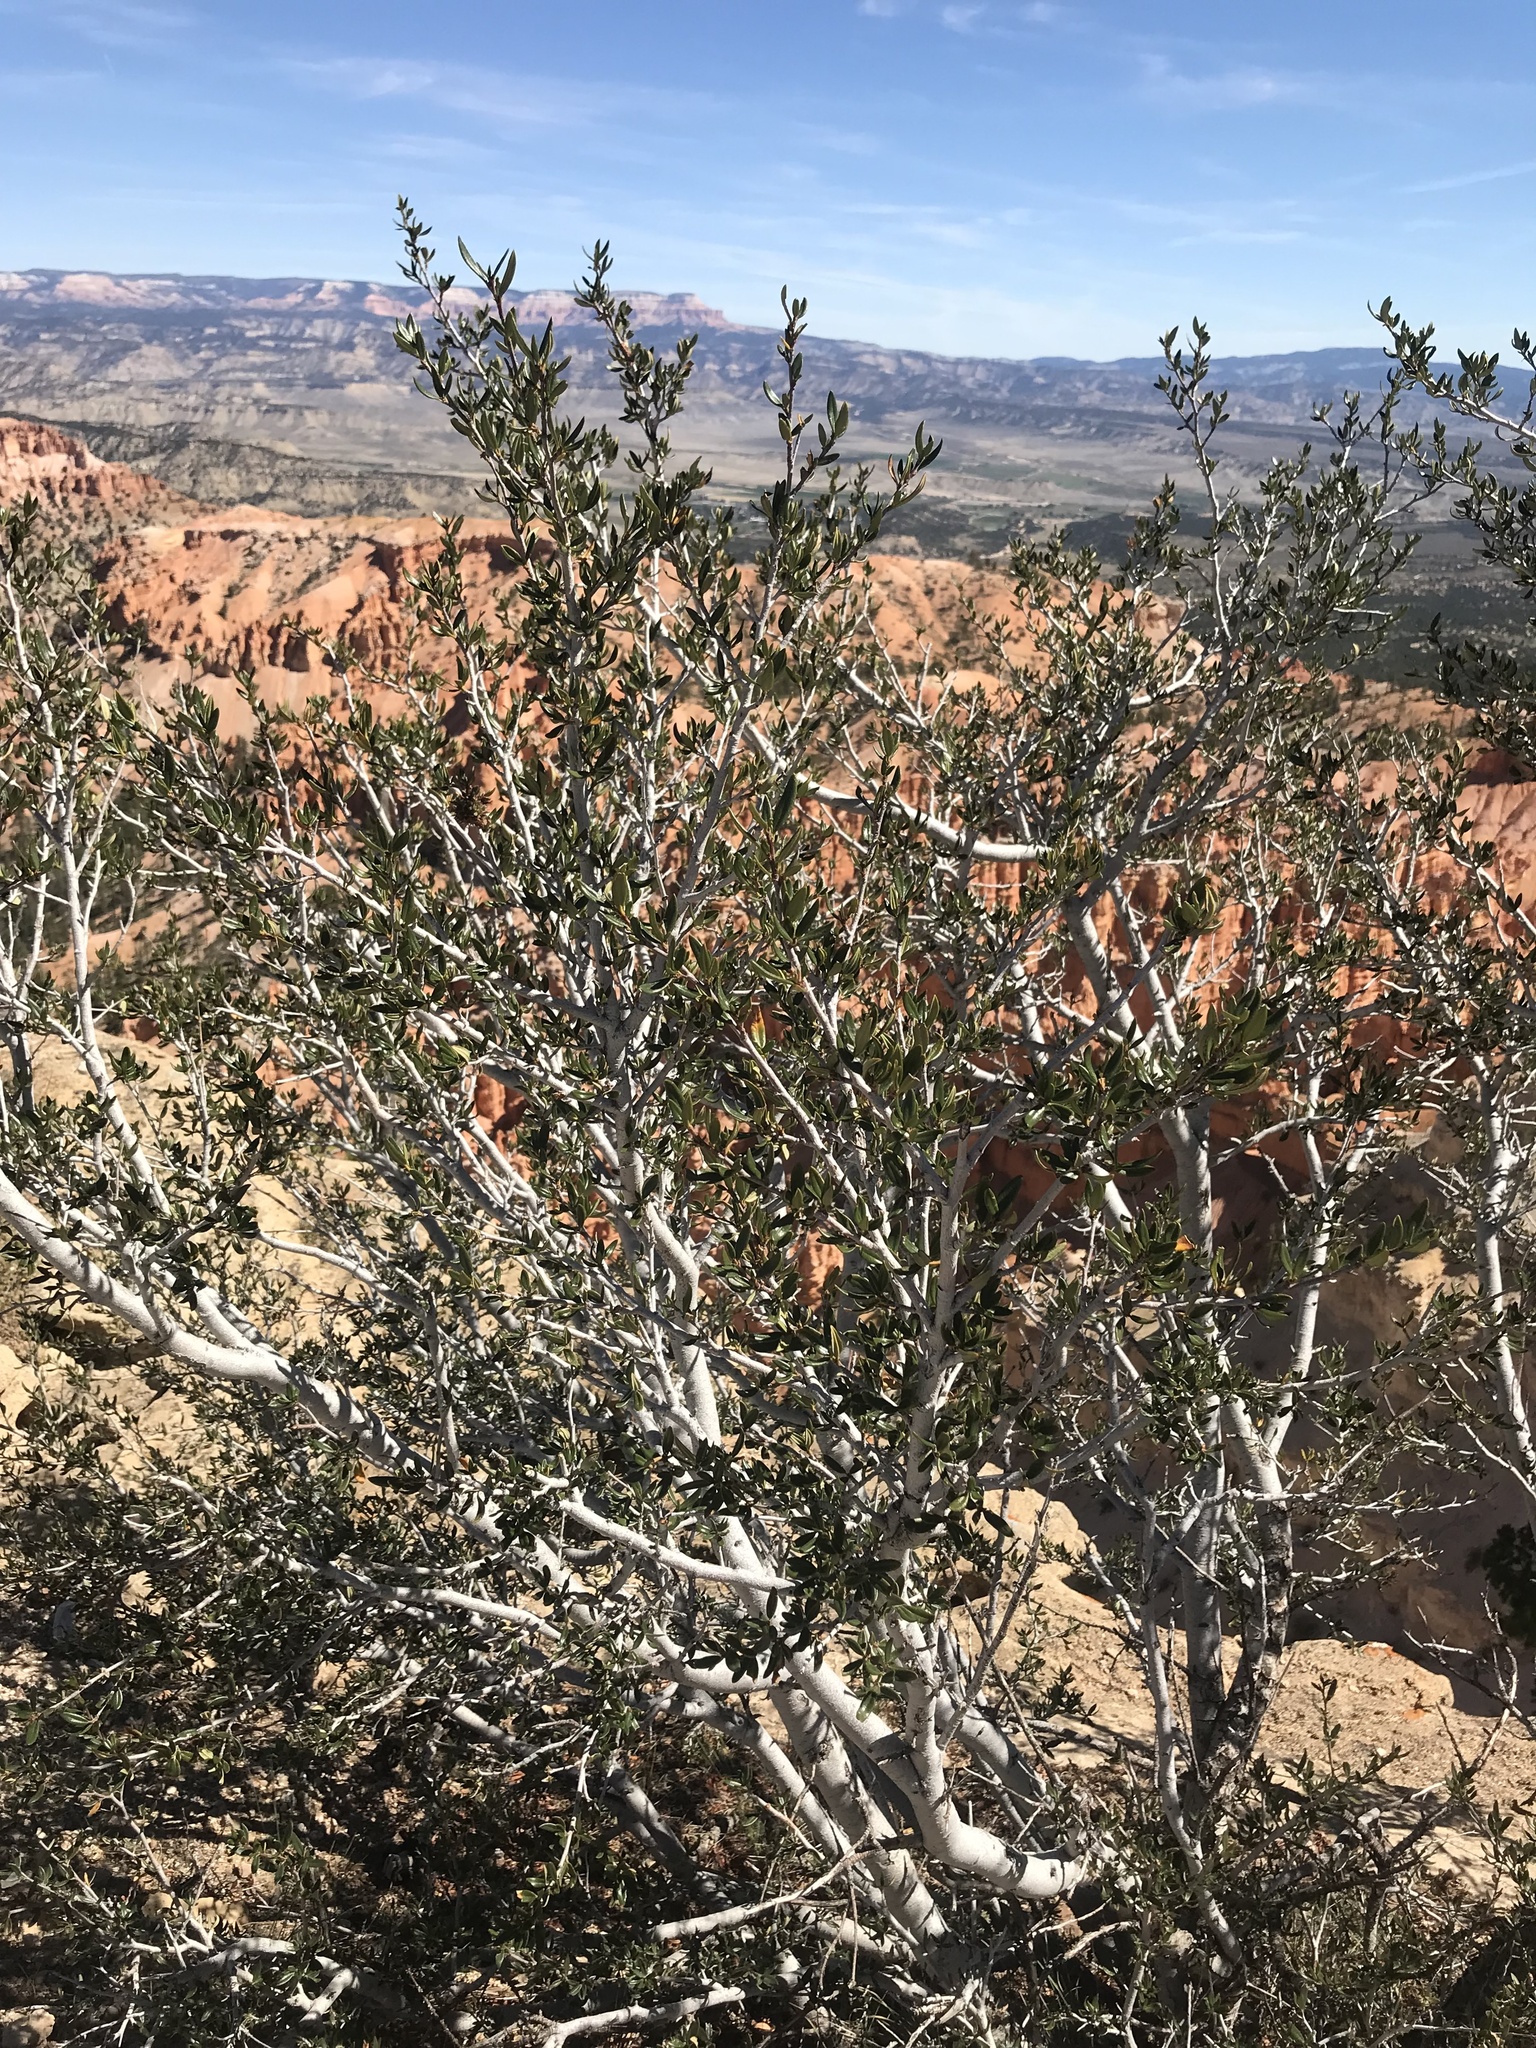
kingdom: Plantae
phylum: Tracheophyta
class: Magnoliopsida
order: Rosales
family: Rosaceae
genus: Cercocarpus
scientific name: Cercocarpus ledifolius
